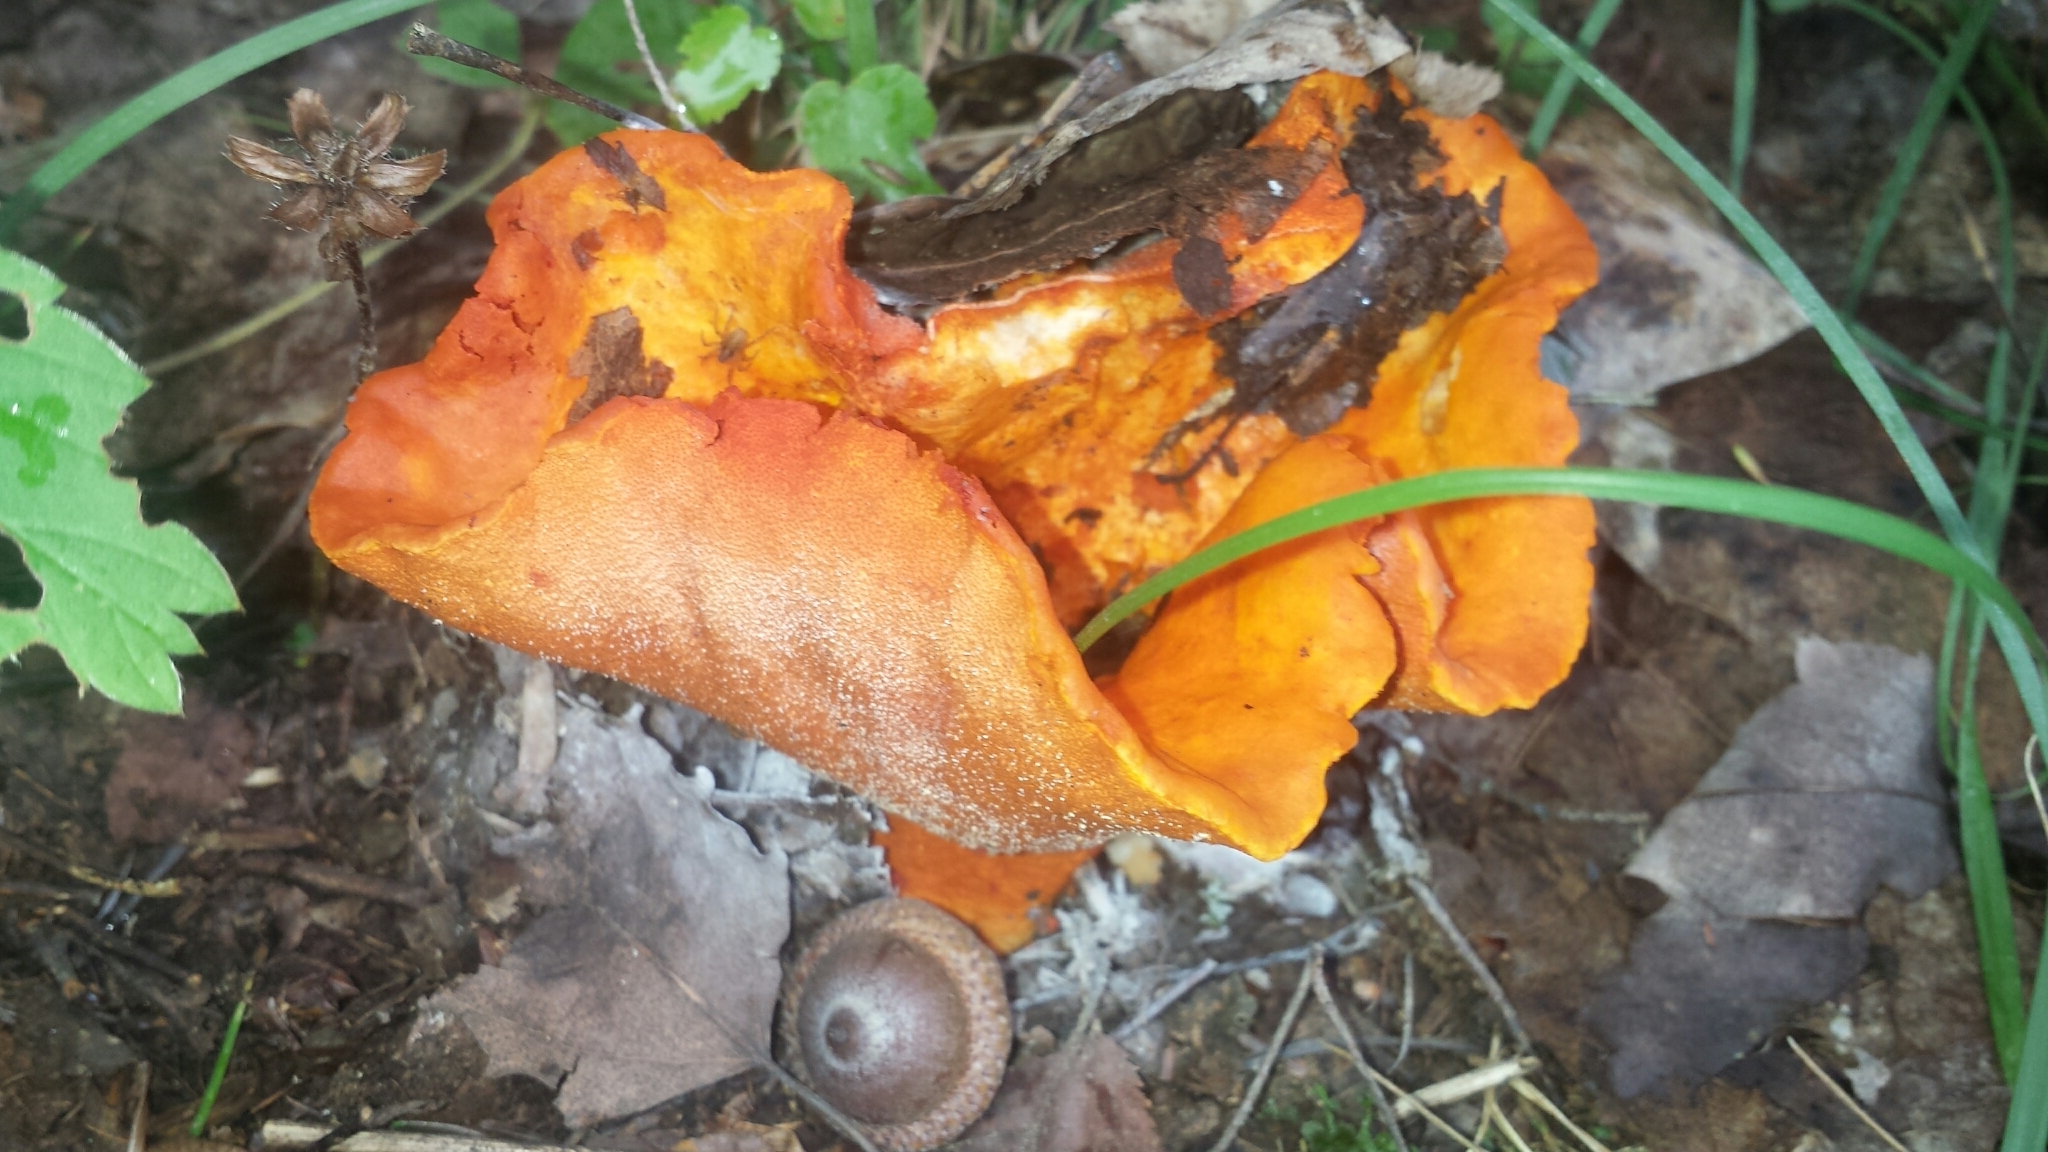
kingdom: Fungi
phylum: Ascomycota
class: Sordariomycetes
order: Hypocreales
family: Hypocreaceae
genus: Hypomyces
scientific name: Hypomyces lactifluorum
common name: Lobster mushroom
